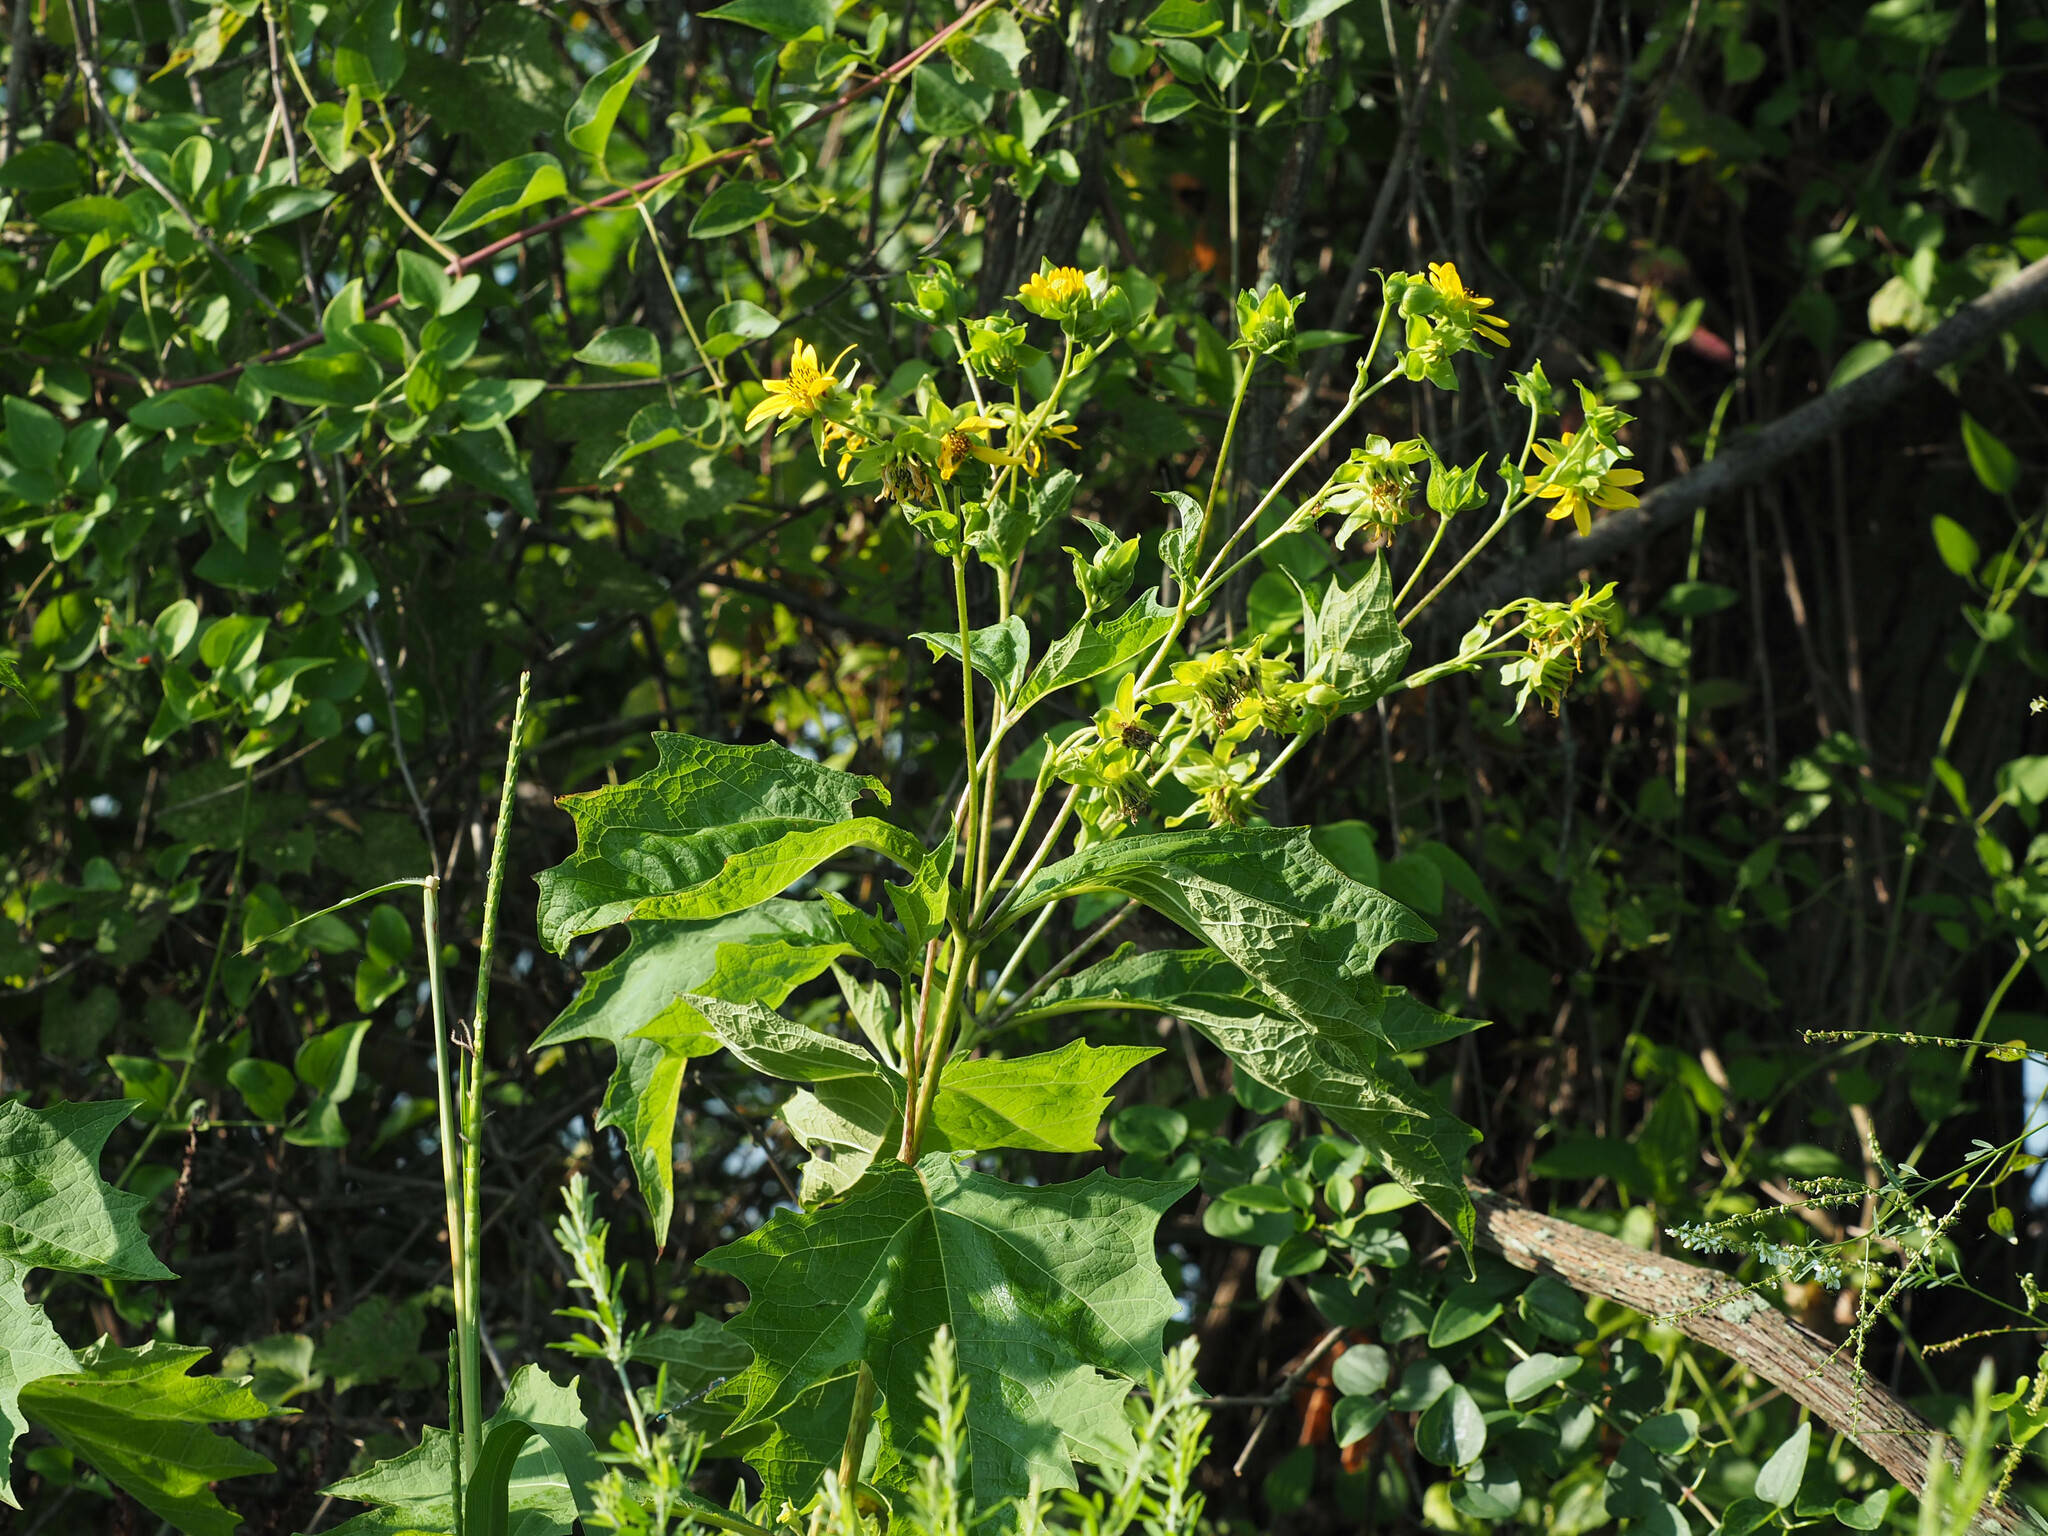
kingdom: Plantae
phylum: Tracheophyta
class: Magnoliopsida
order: Asterales
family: Asteraceae
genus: Smallanthus
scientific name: Smallanthus uvedalia
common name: Bear's-foot
